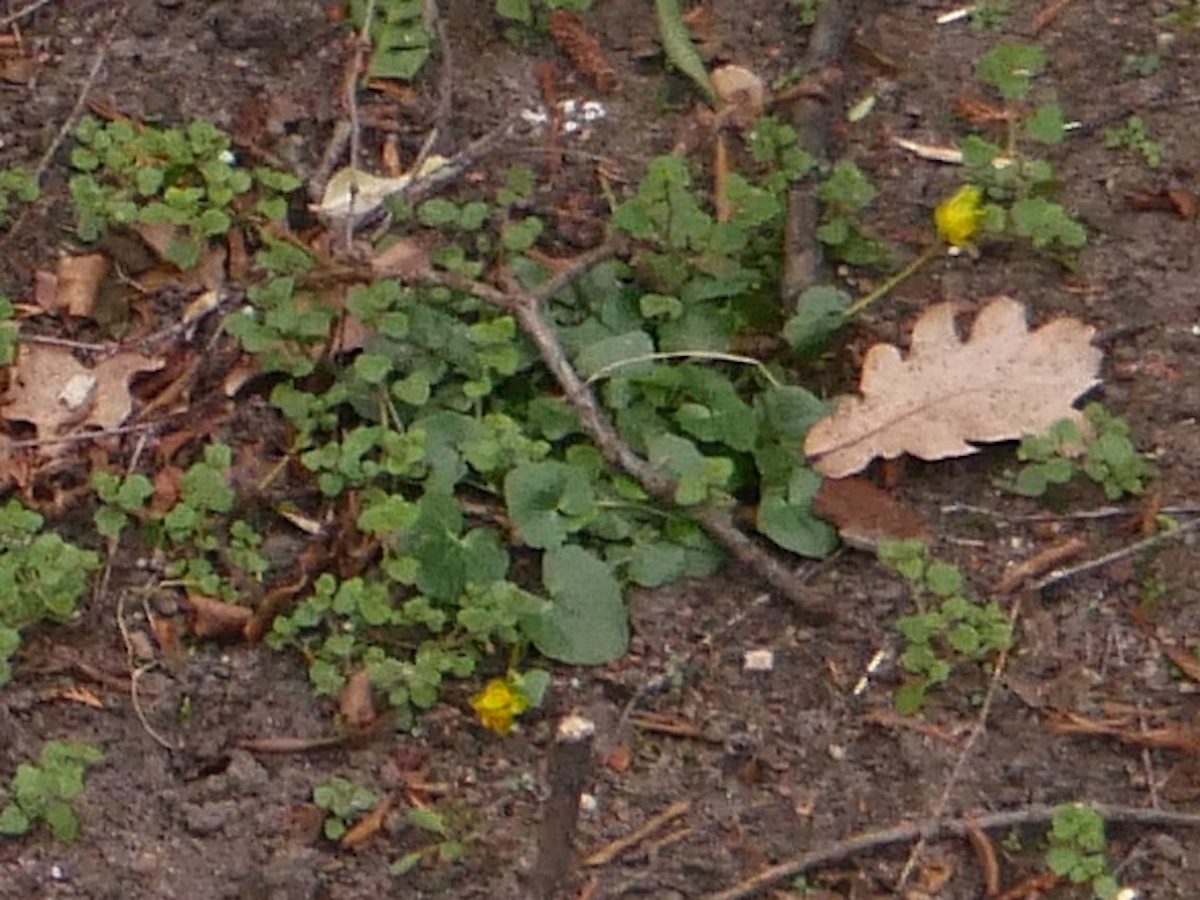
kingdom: Plantae
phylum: Tracheophyta
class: Magnoliopsida
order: Ranunculales
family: Ranunculaceae
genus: Ficaria
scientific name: Ficaria verna
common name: Lesser celandine
